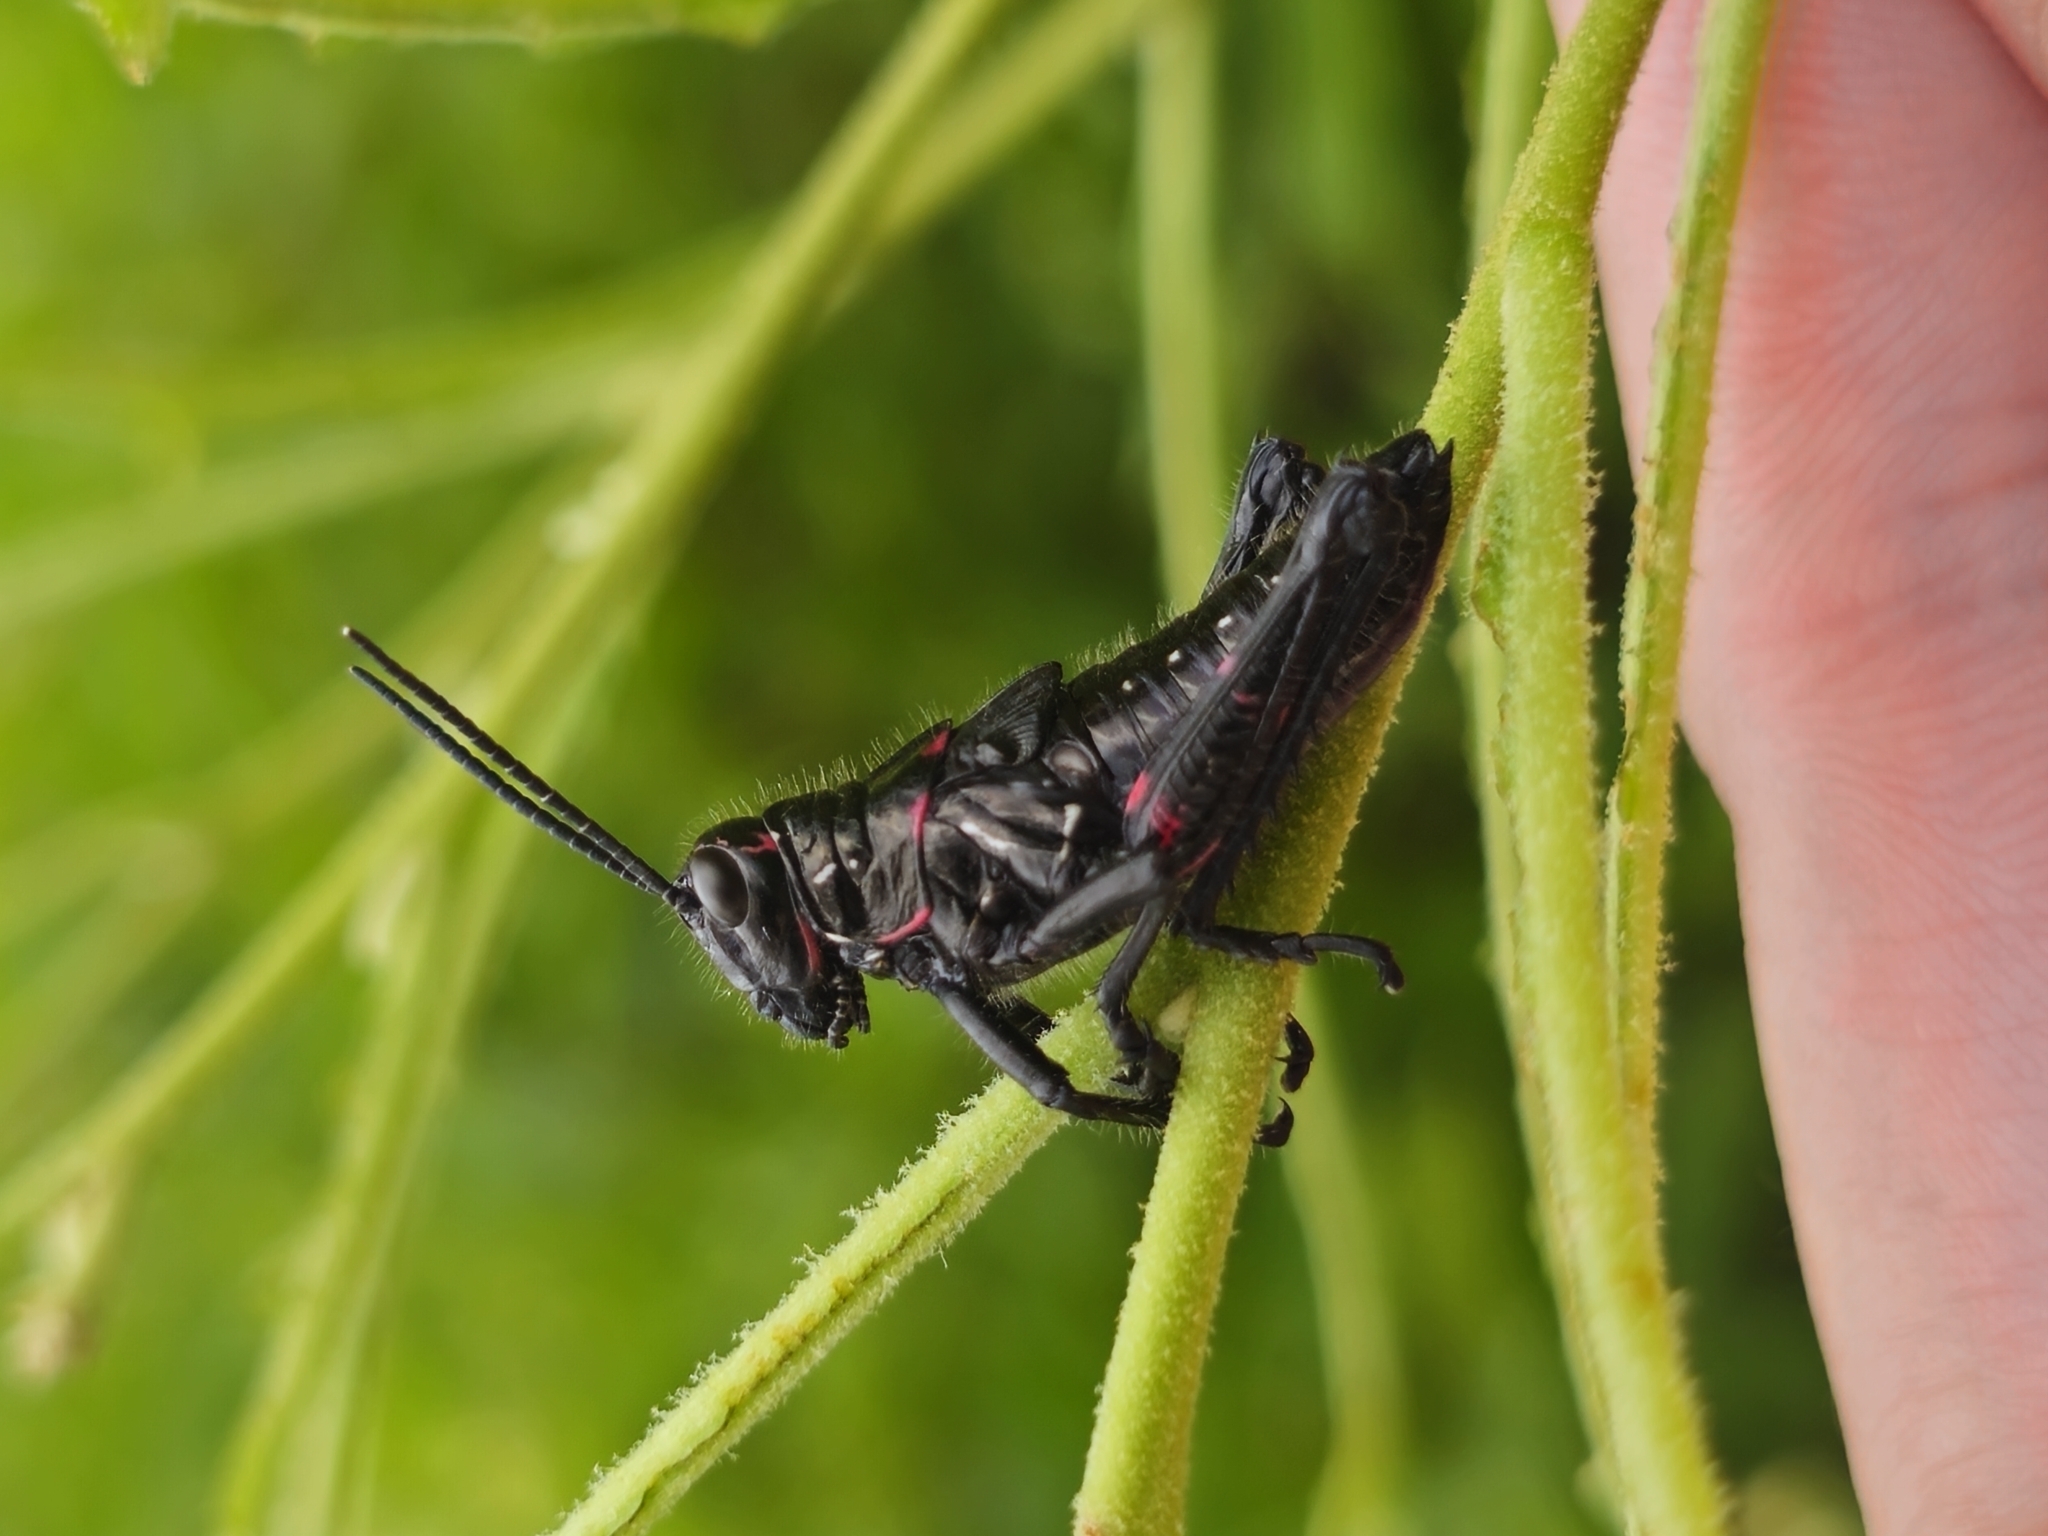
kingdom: Animalia
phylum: Arthropoda
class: Insecta
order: Orthoptera
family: Romaleidae
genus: Chromacris
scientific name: Chromacris speciosa
